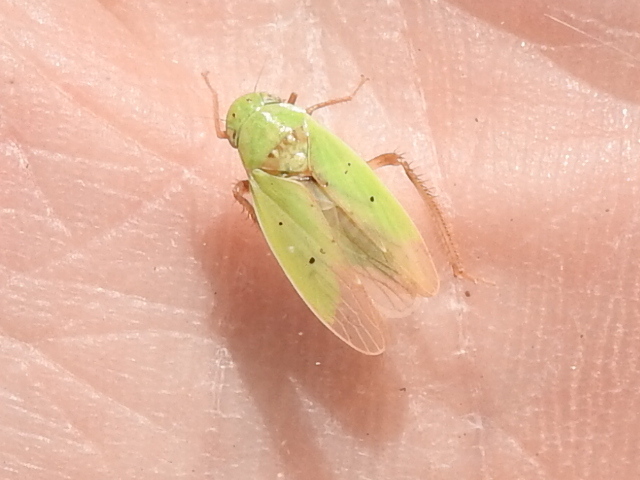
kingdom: Animalia
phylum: Arthropoda
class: Insecta
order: Hemiptera
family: Cicadellidae
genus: Ponana
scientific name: Ponana
